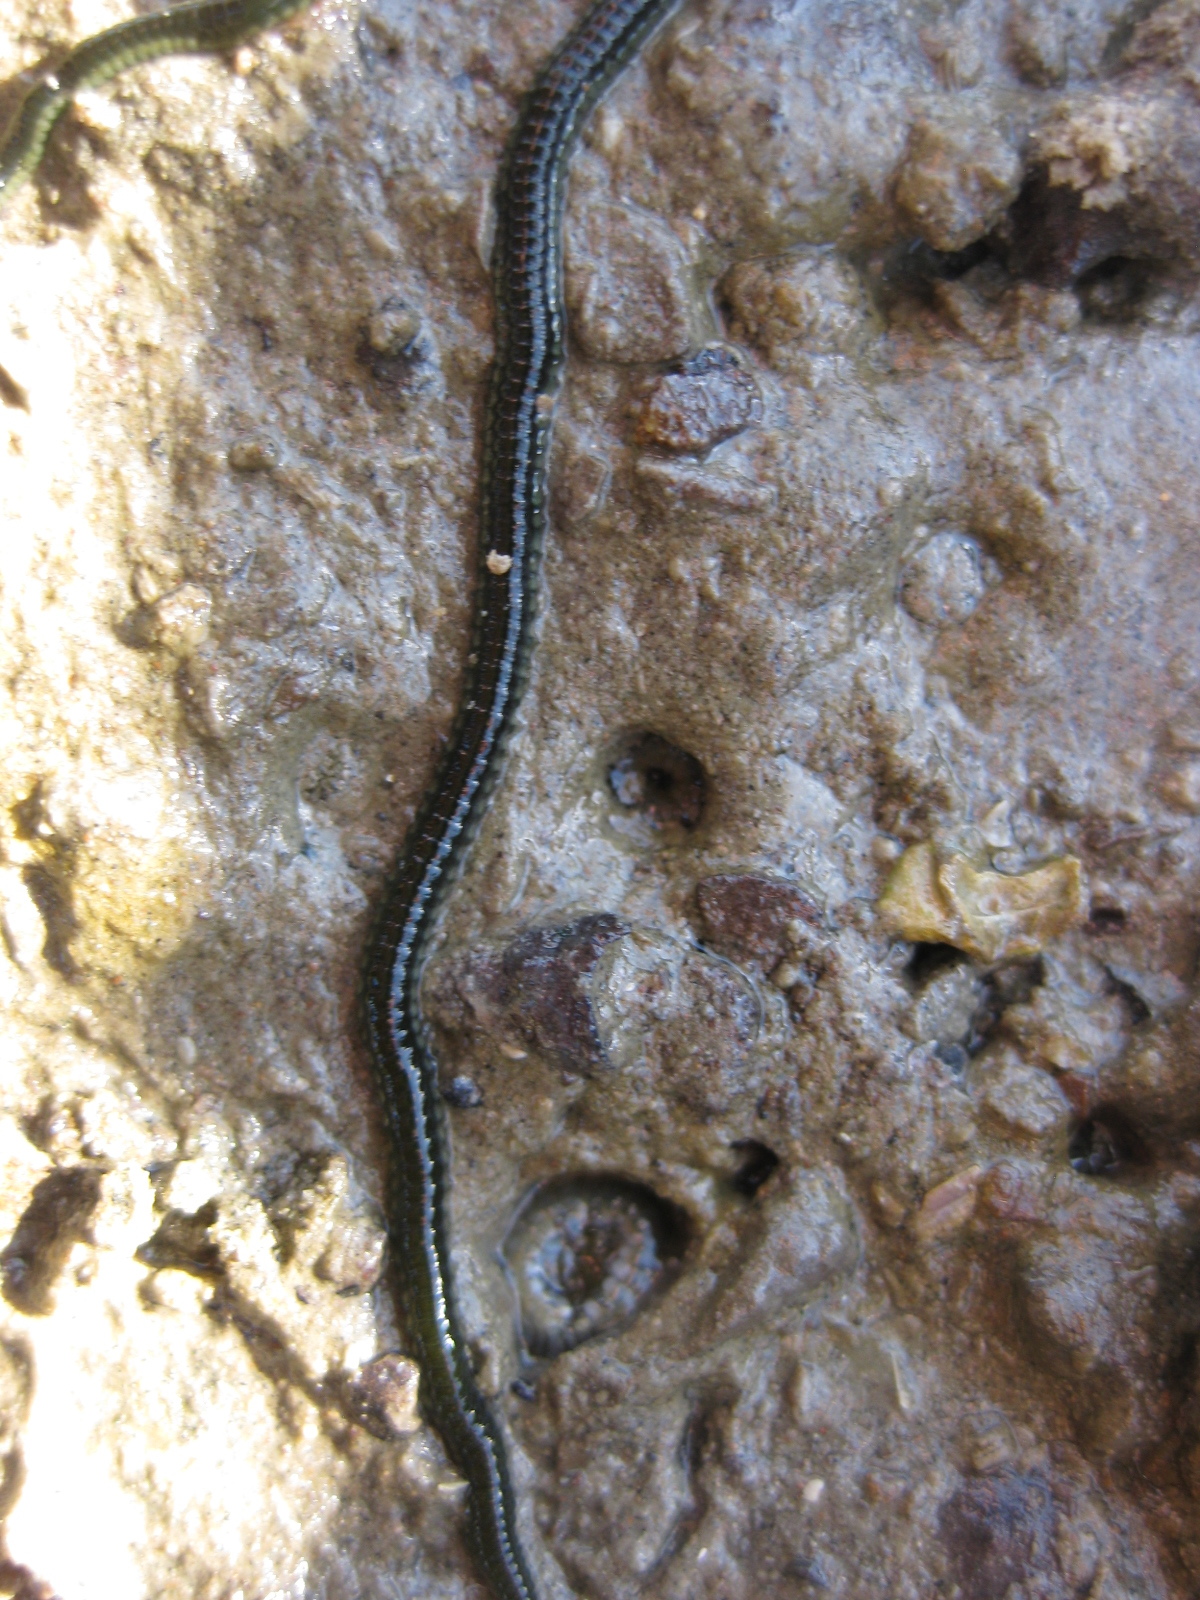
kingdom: Animalia
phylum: Annelida
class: Polychaeta
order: Phyllodocida
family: Phyllodocidae
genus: Eulalia
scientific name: Eulalia microphylla
